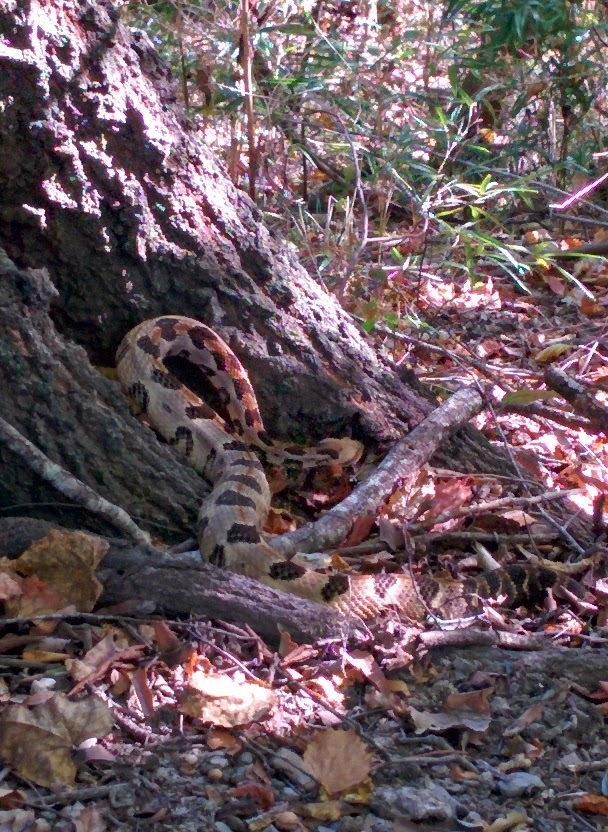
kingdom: Animalia
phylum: Chordata
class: Squamata
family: Viperidae
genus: Crotalus
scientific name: Crotalus horridus
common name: Timber rattlesnake
